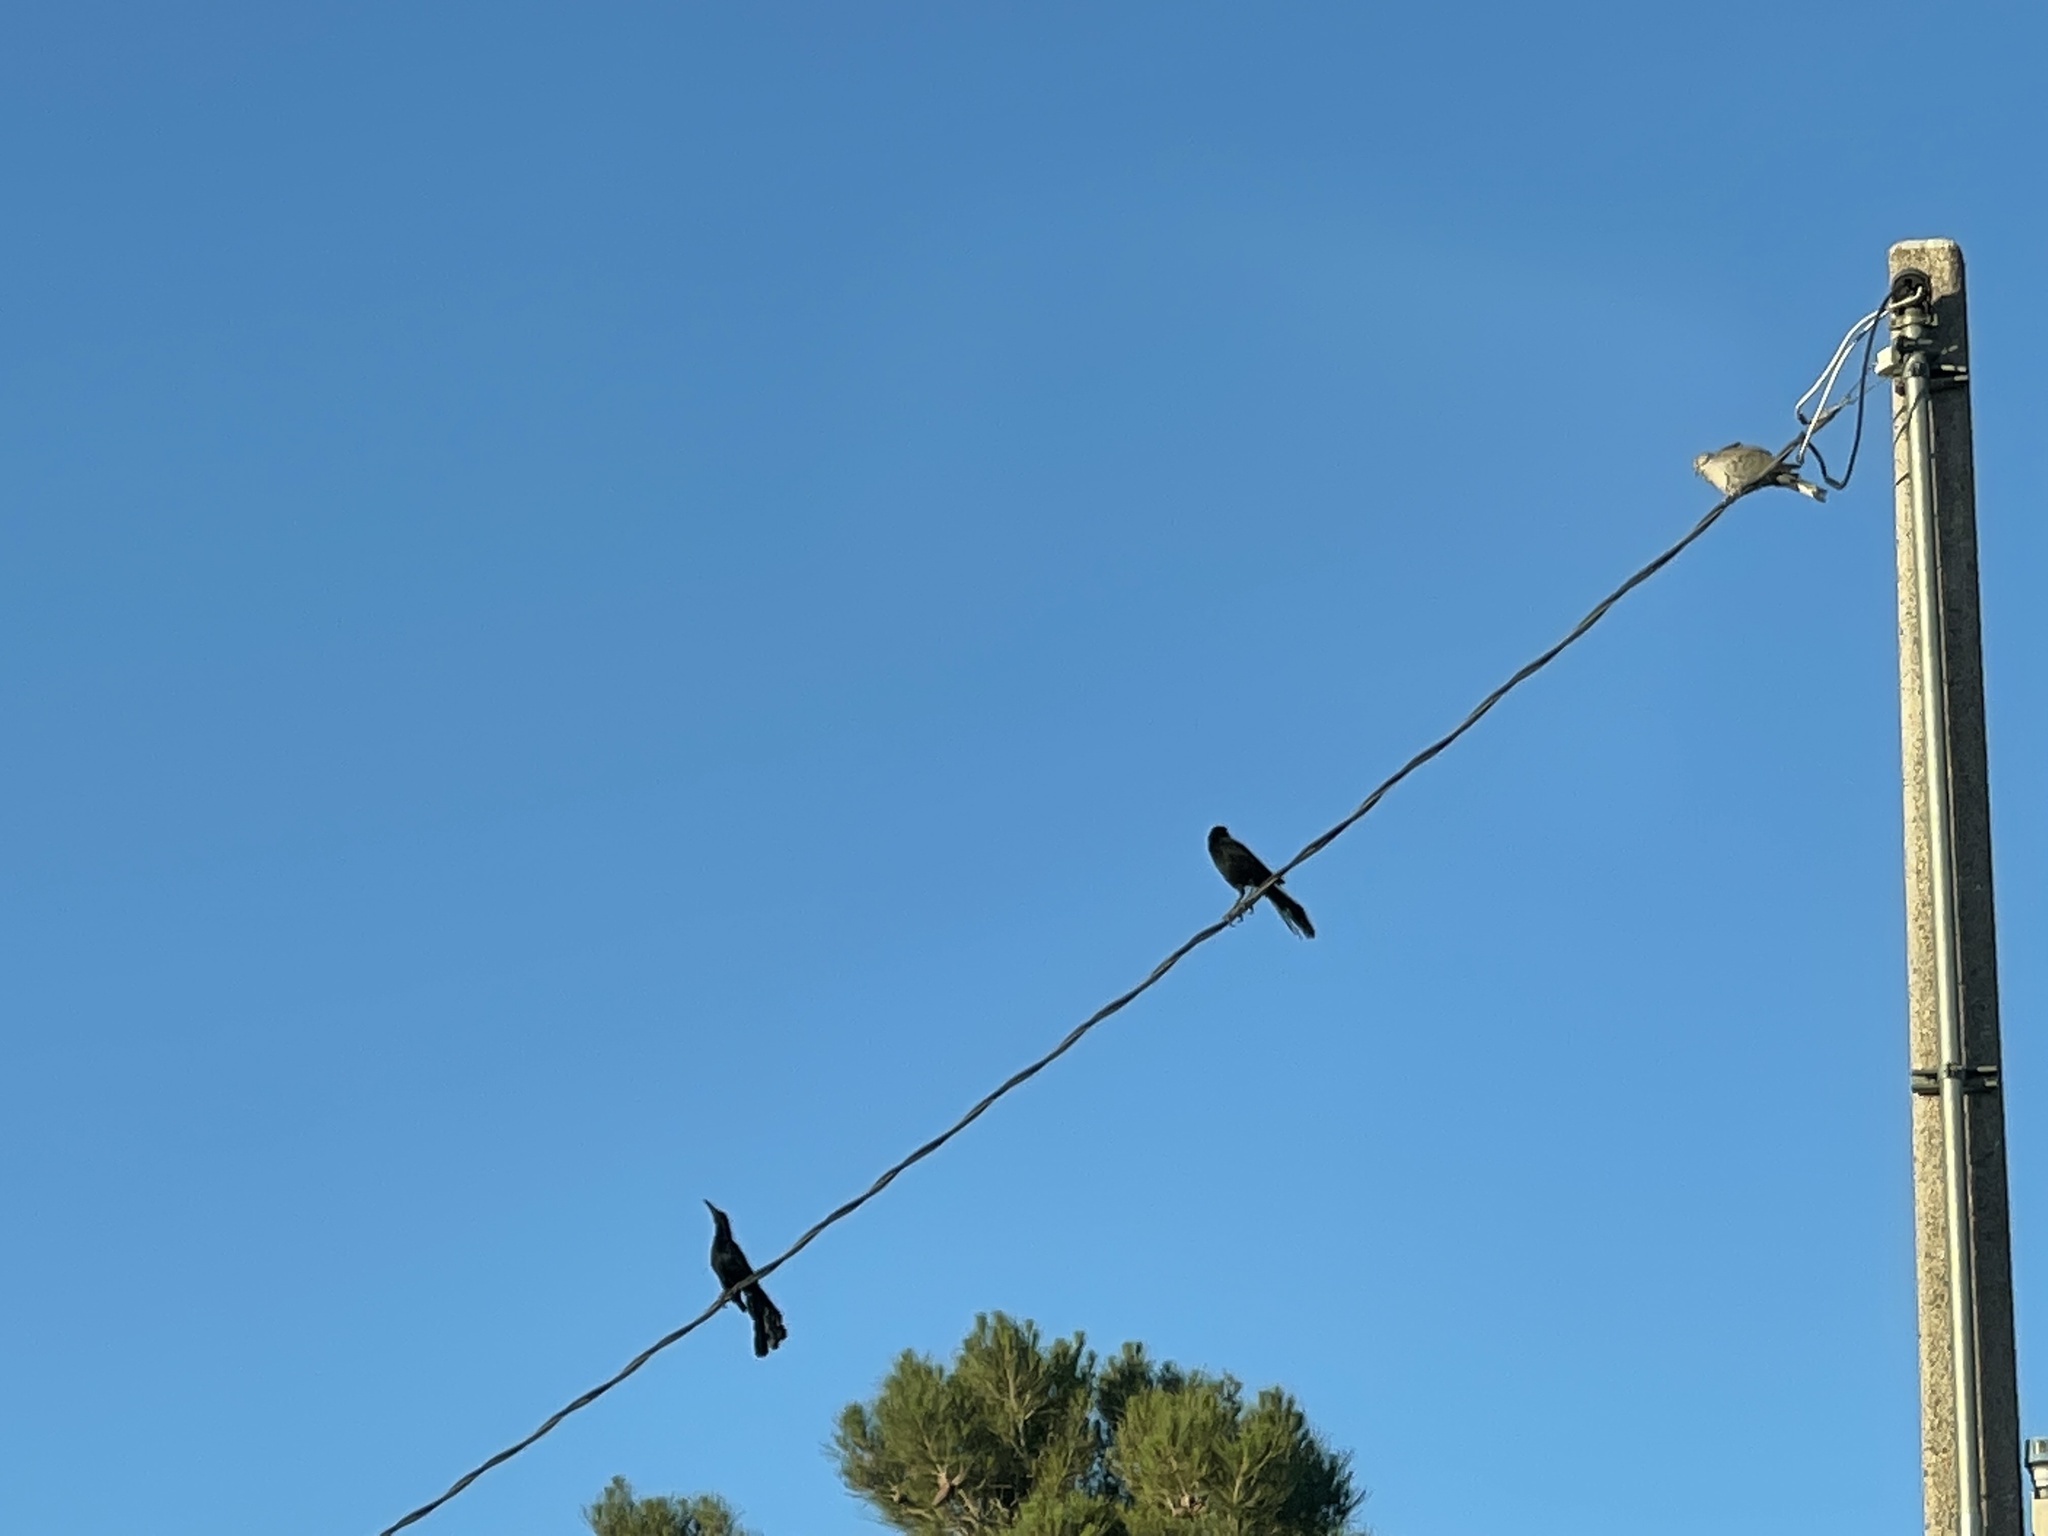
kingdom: Animalia
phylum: Chordata
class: Aves
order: Passeriformes
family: Icteridae
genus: Quiscalus
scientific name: Quiscalus mexicanus
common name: Great-tailed grackle
